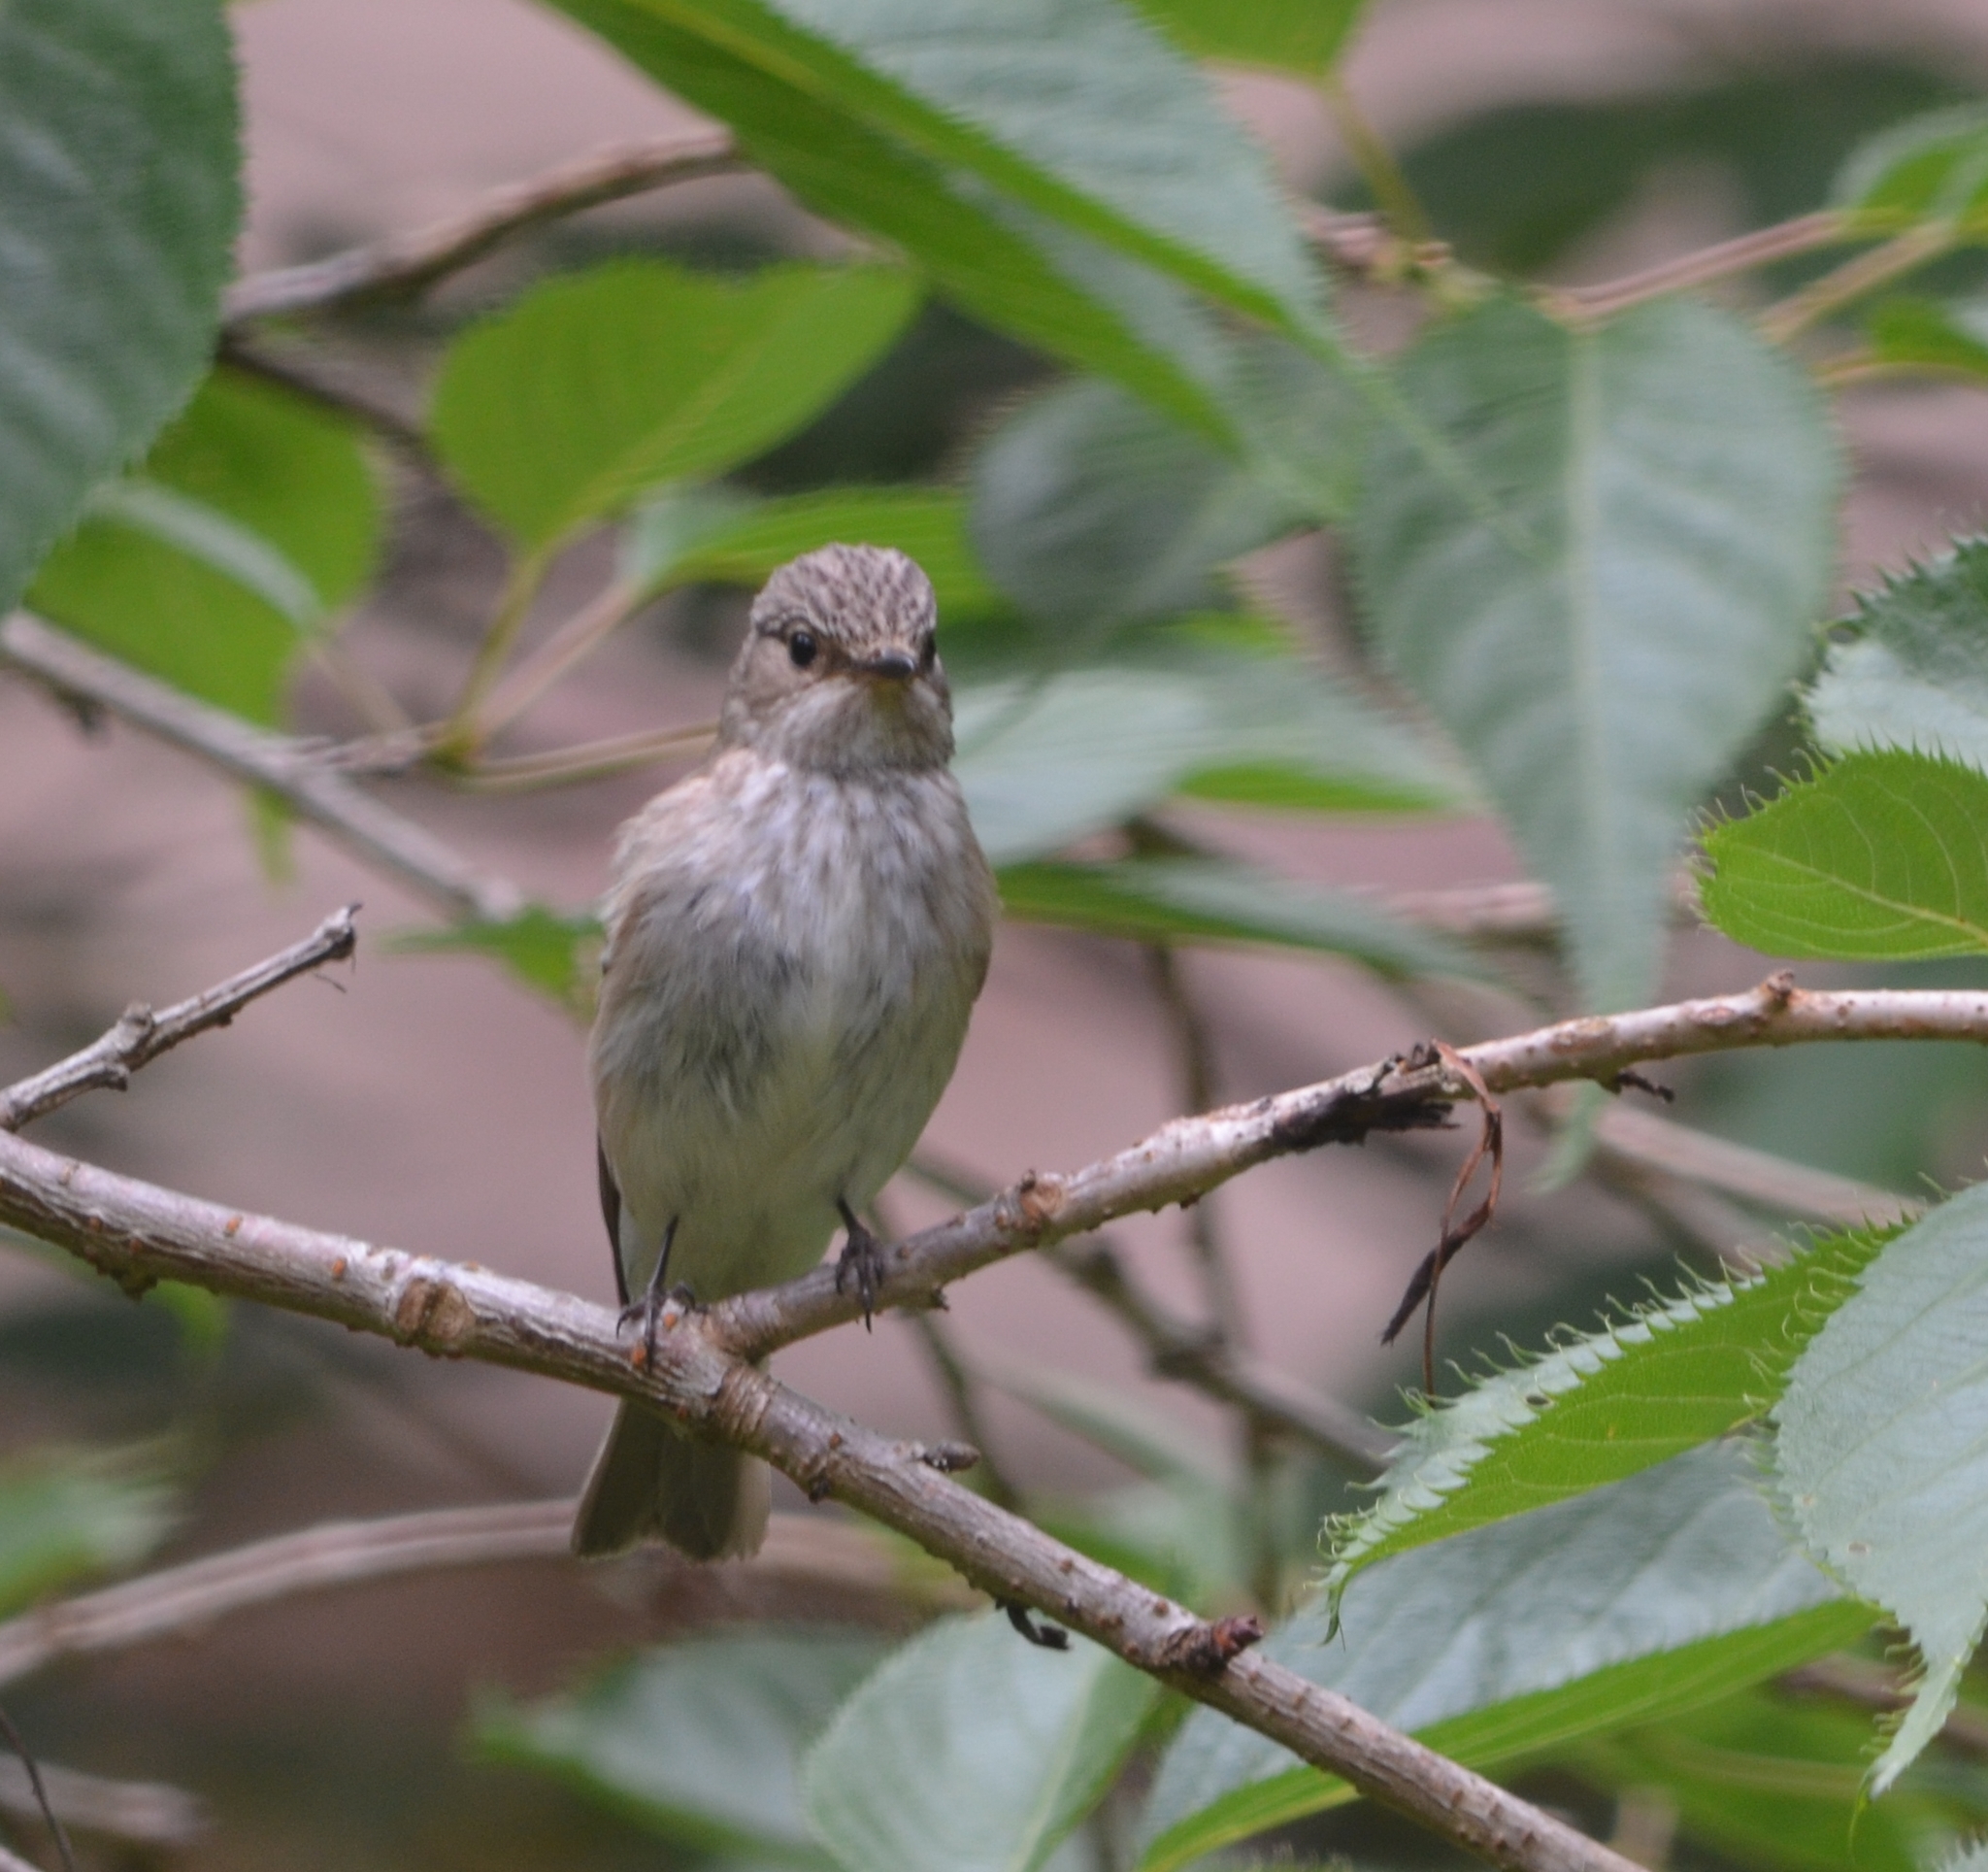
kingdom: Animalia
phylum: Chordata
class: Aves
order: Passeriformes
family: Muscicapidae
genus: Muscicapa
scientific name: Muscicapa striata
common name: Spotted flycatcher
